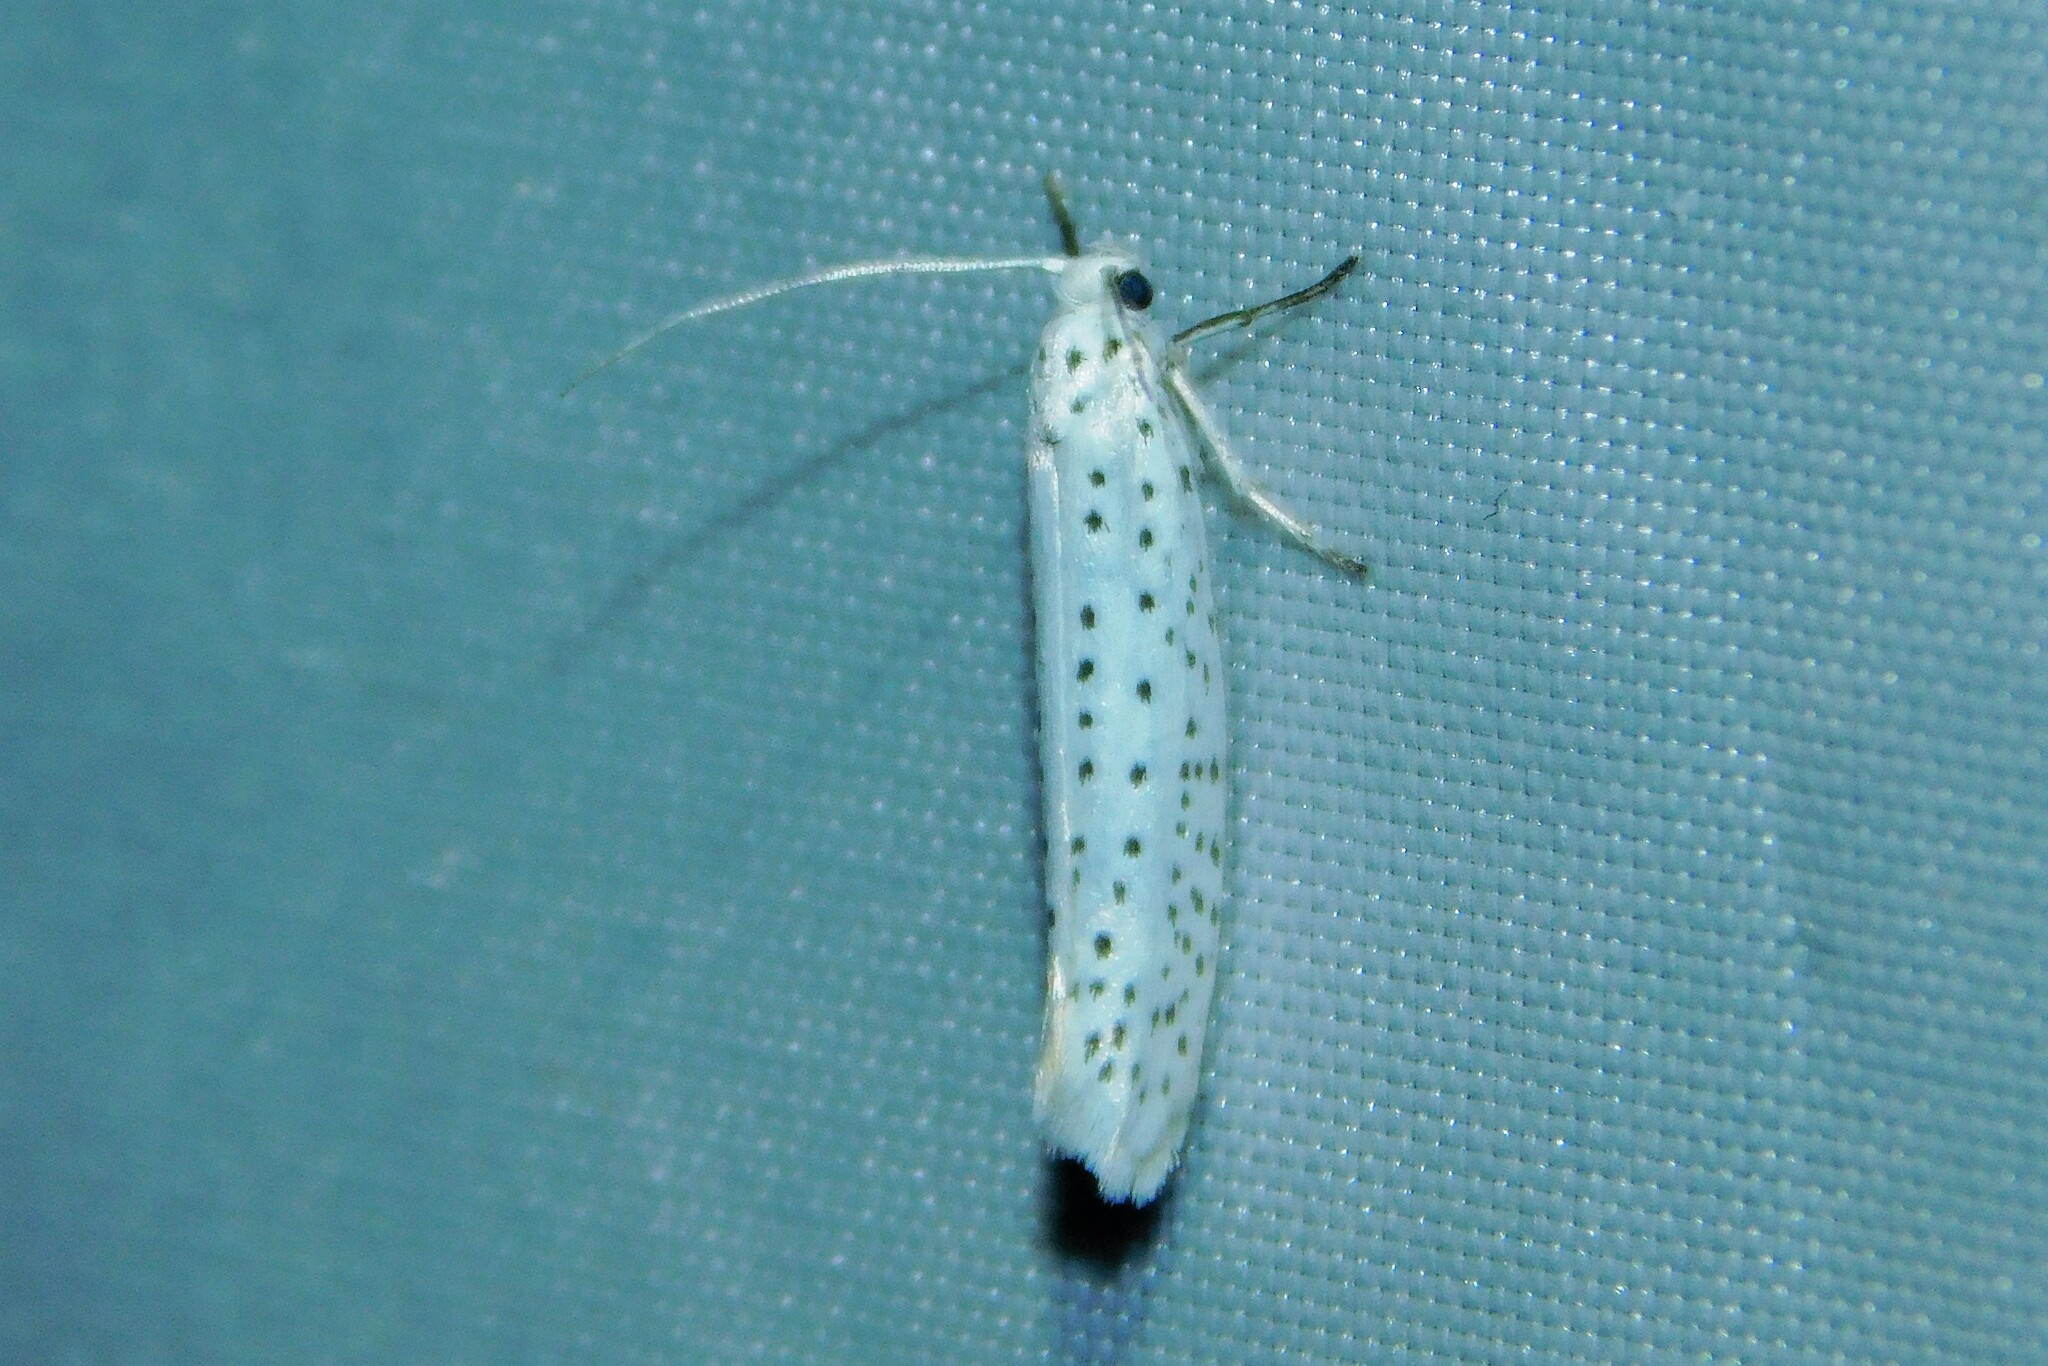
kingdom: Animalia
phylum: Arthropoda
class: Insecta
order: Lepidoptera
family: Yponomeutidae
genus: Yponomeuta
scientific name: Yponomeuta evonymella
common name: Bird-cherry ermine
